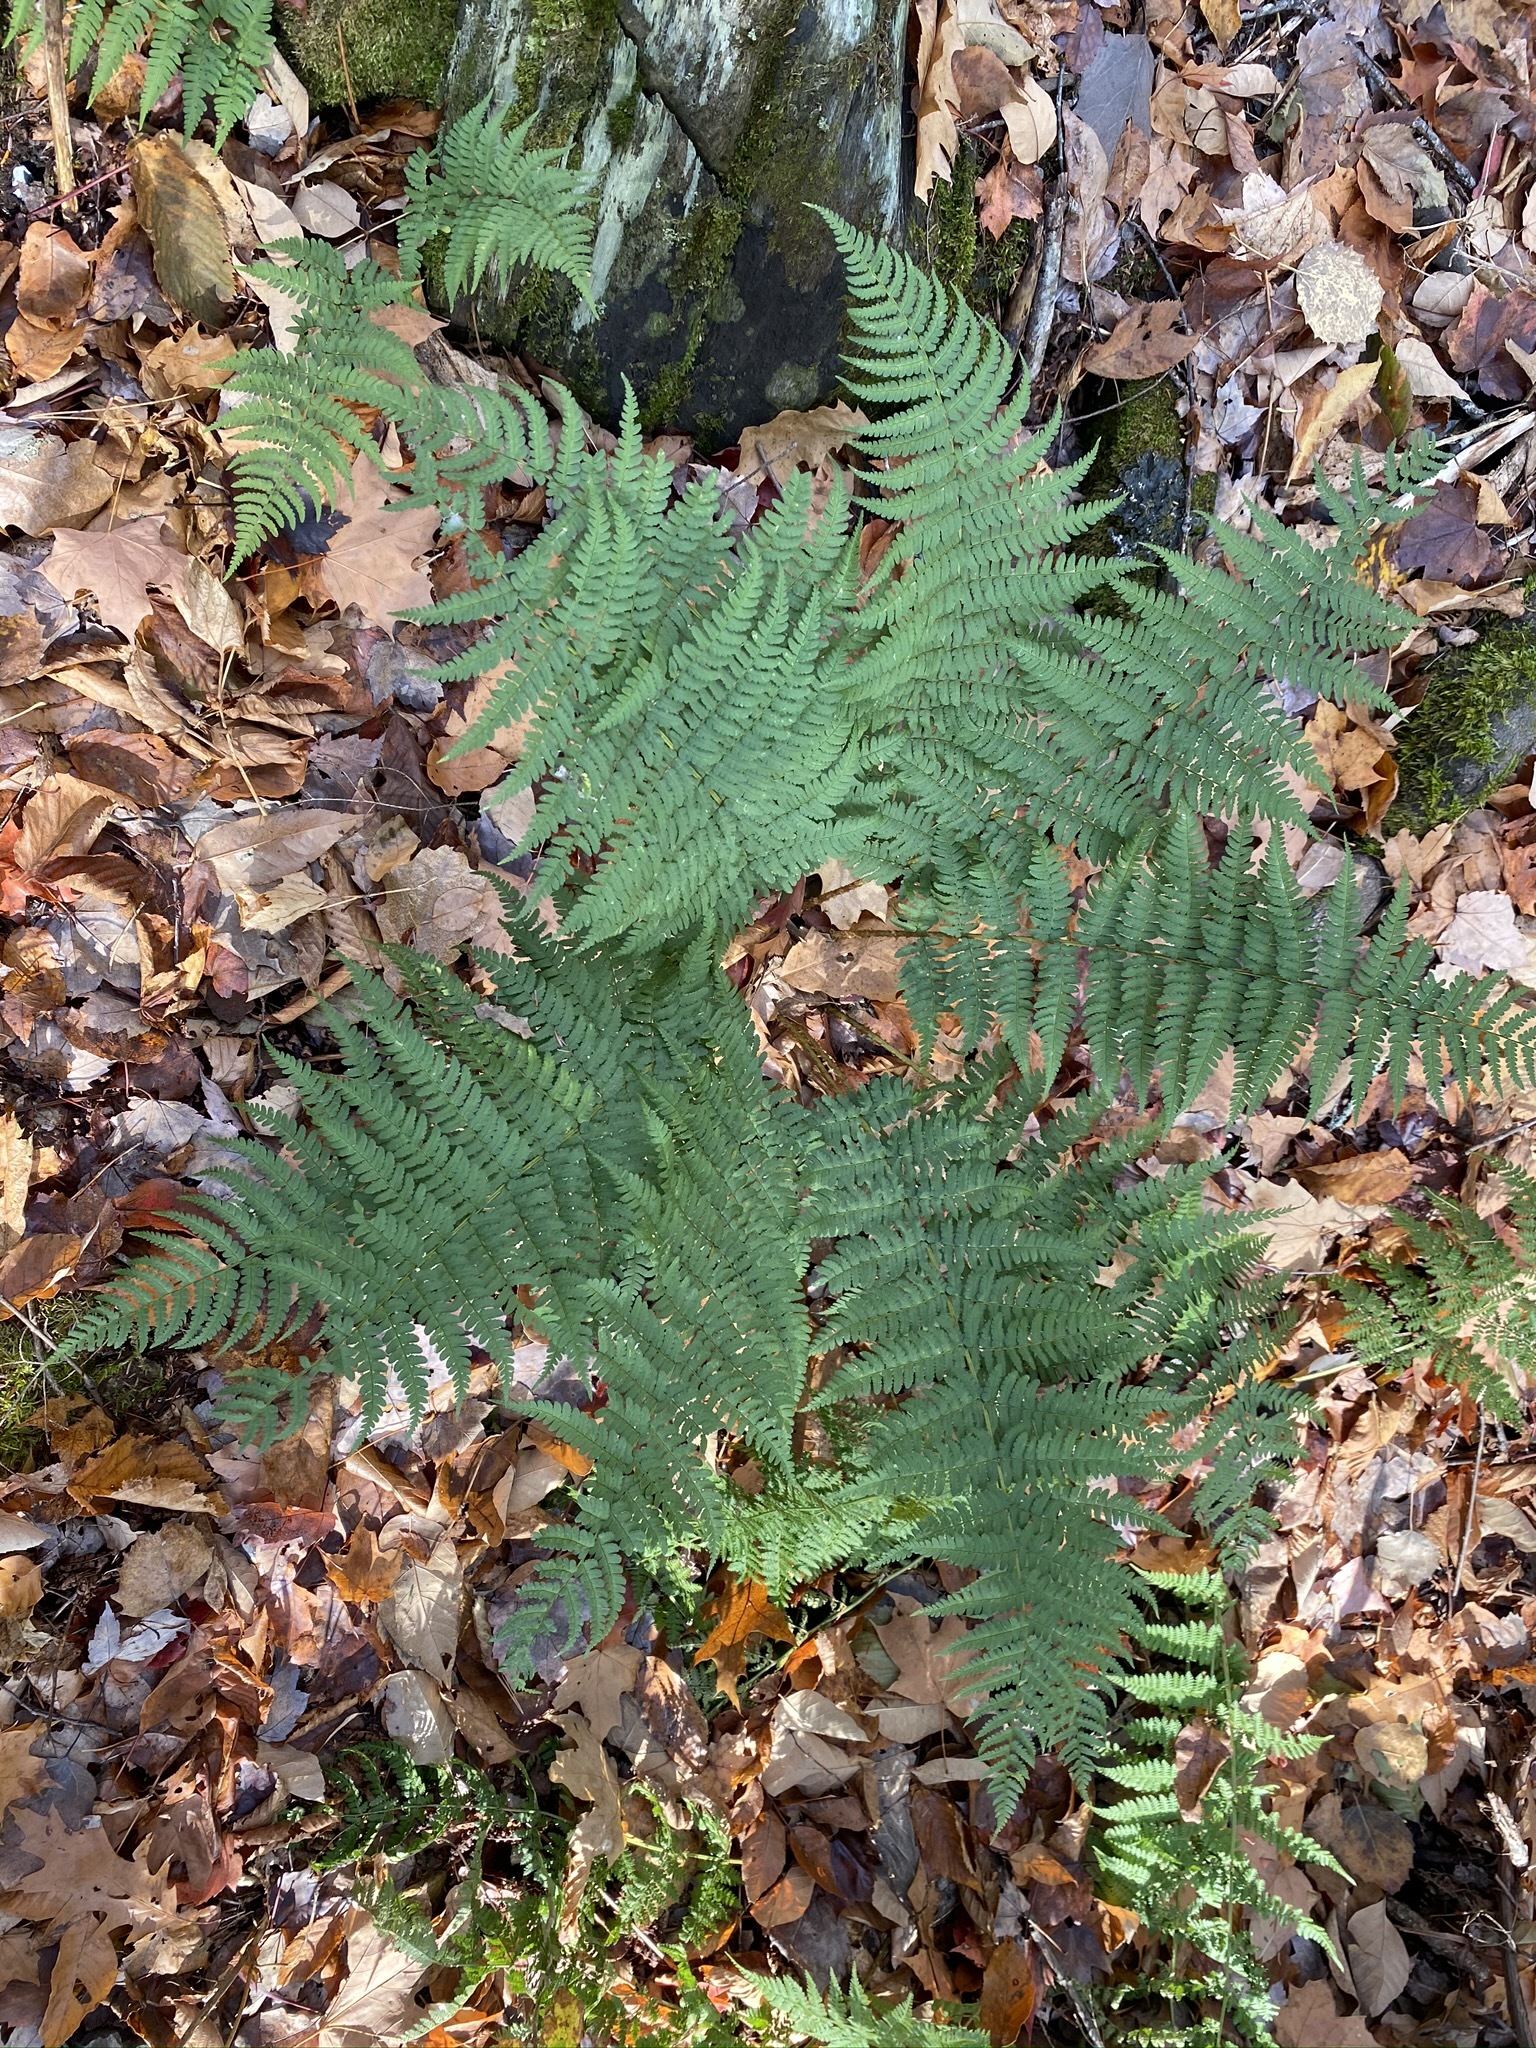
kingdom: Plantae
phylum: Tracheophyta
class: Polypodiopsida
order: Polypodiales
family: Dryopteridaceae
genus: Dryopteris
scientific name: Dryopteris marginalis
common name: Marginal wood fern
